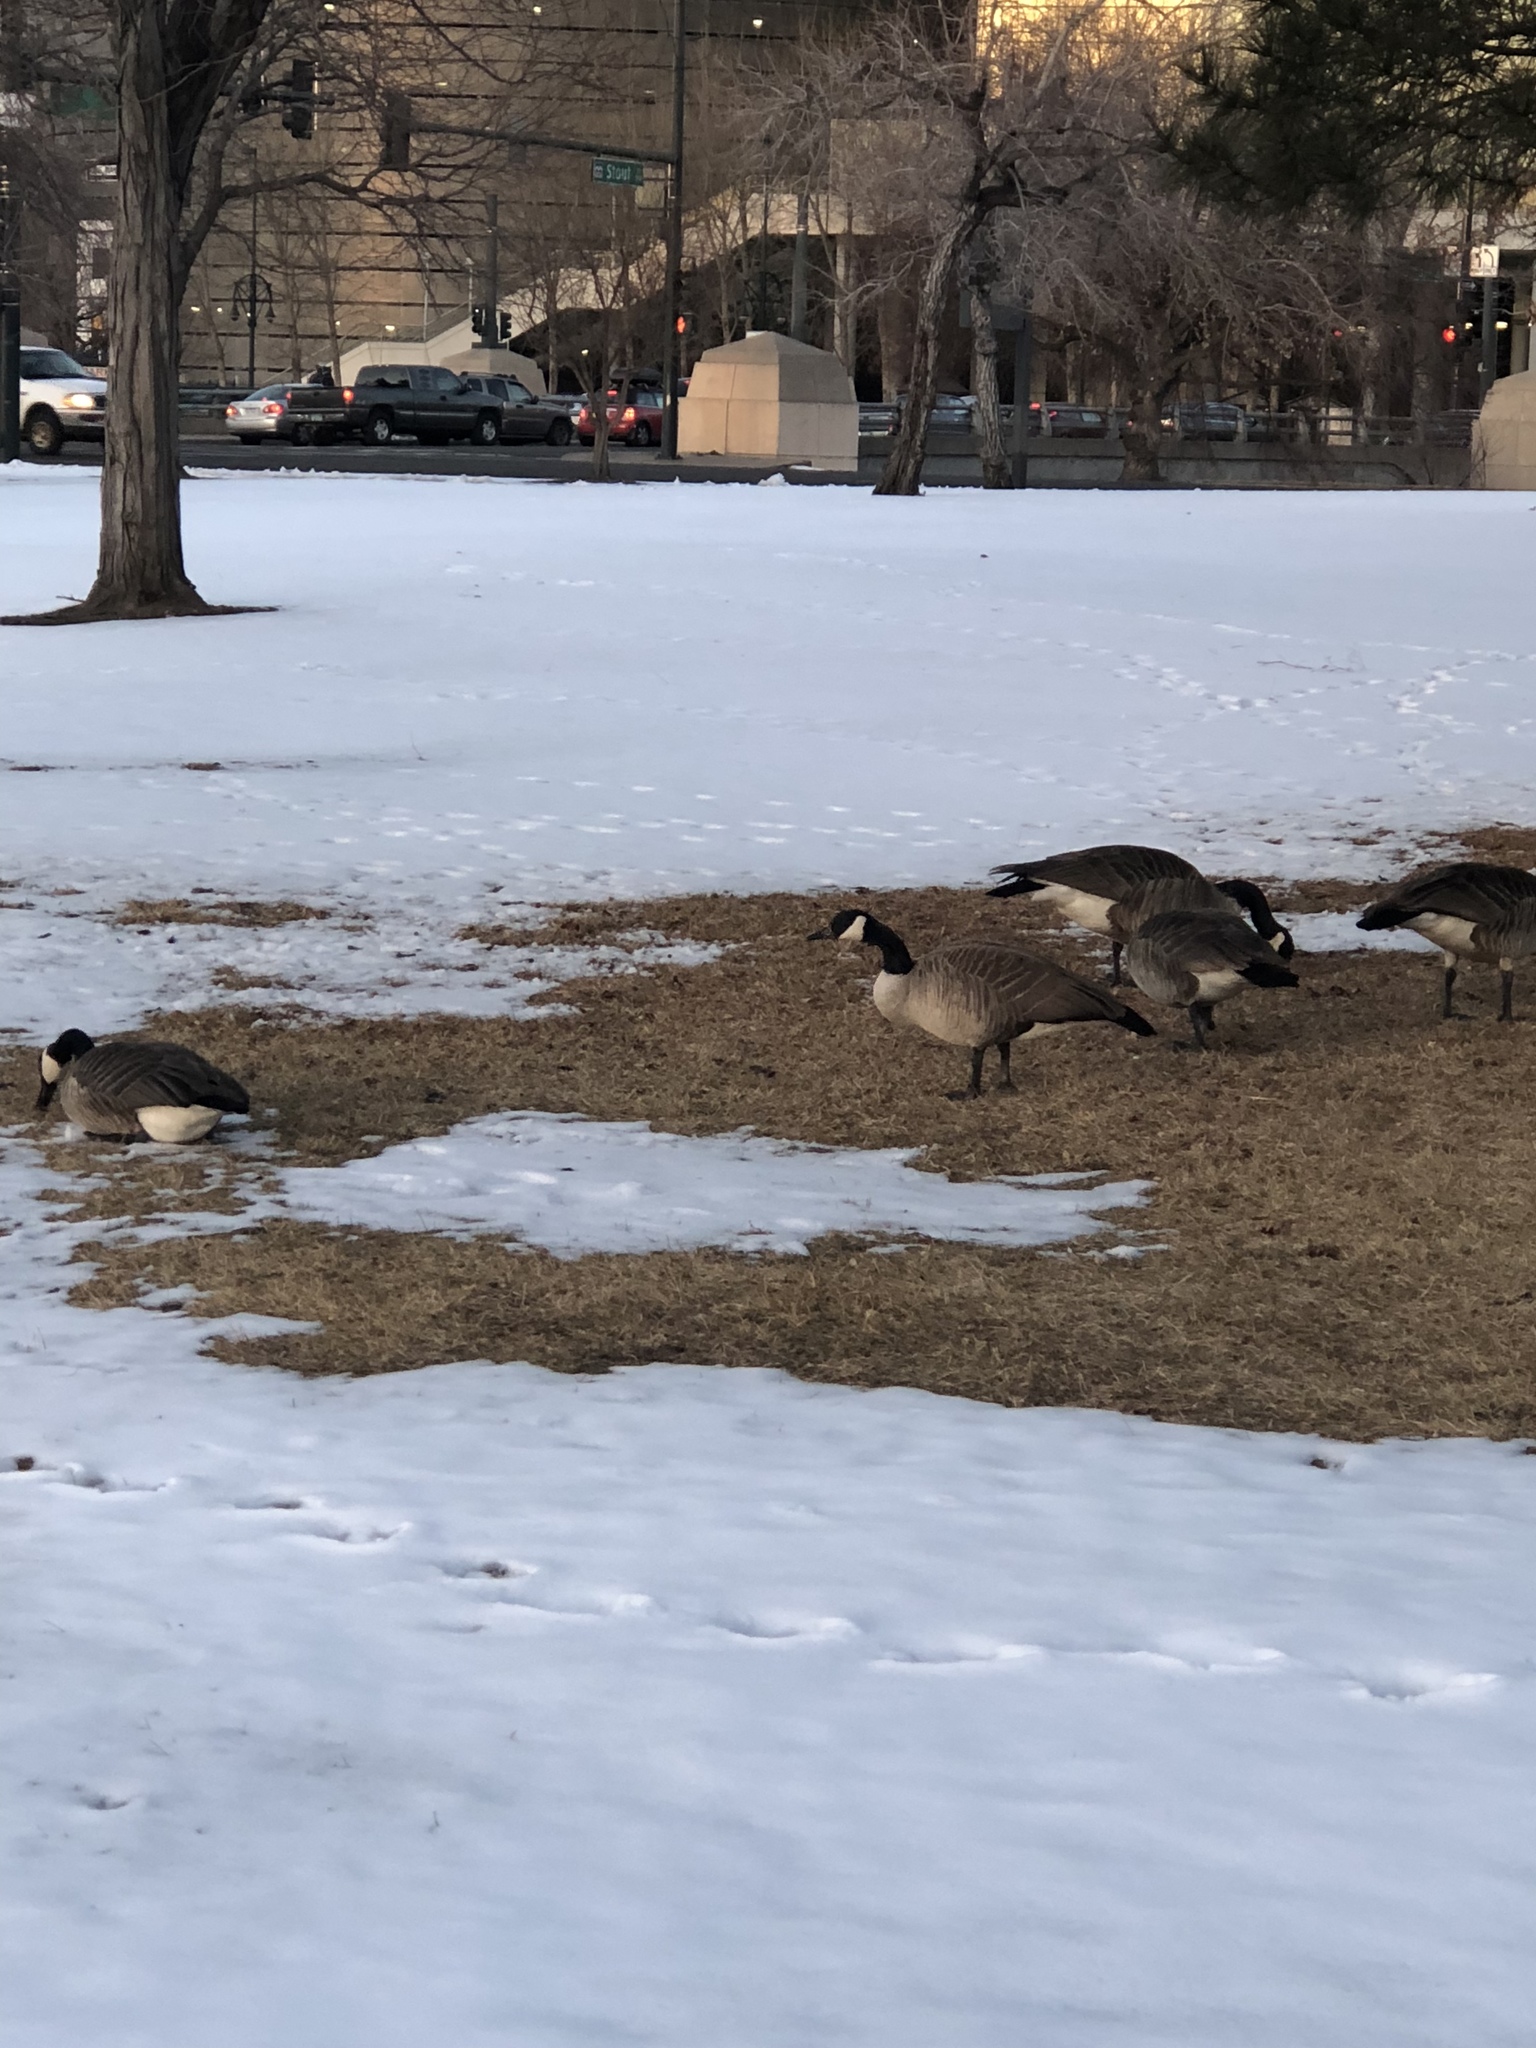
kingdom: Animalia
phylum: Chordata
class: Aves
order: Anseriformes
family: Anatidae
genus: Branta
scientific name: Branta canadensis
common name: Canada goose
